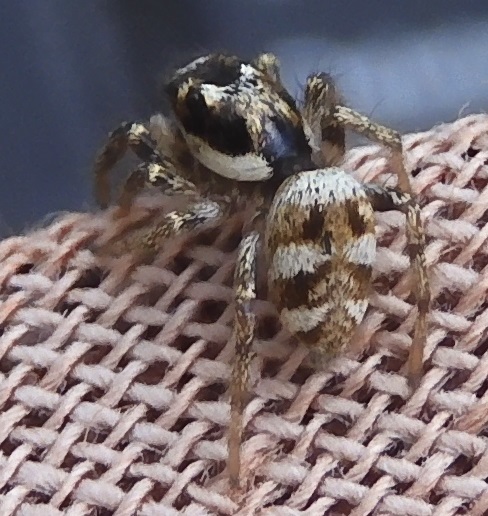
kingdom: Animalia
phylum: Arthropoda
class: Arachnida
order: Araneae
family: Salticidae
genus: Salticus
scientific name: Salticus scenicus
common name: Zebra jumper
